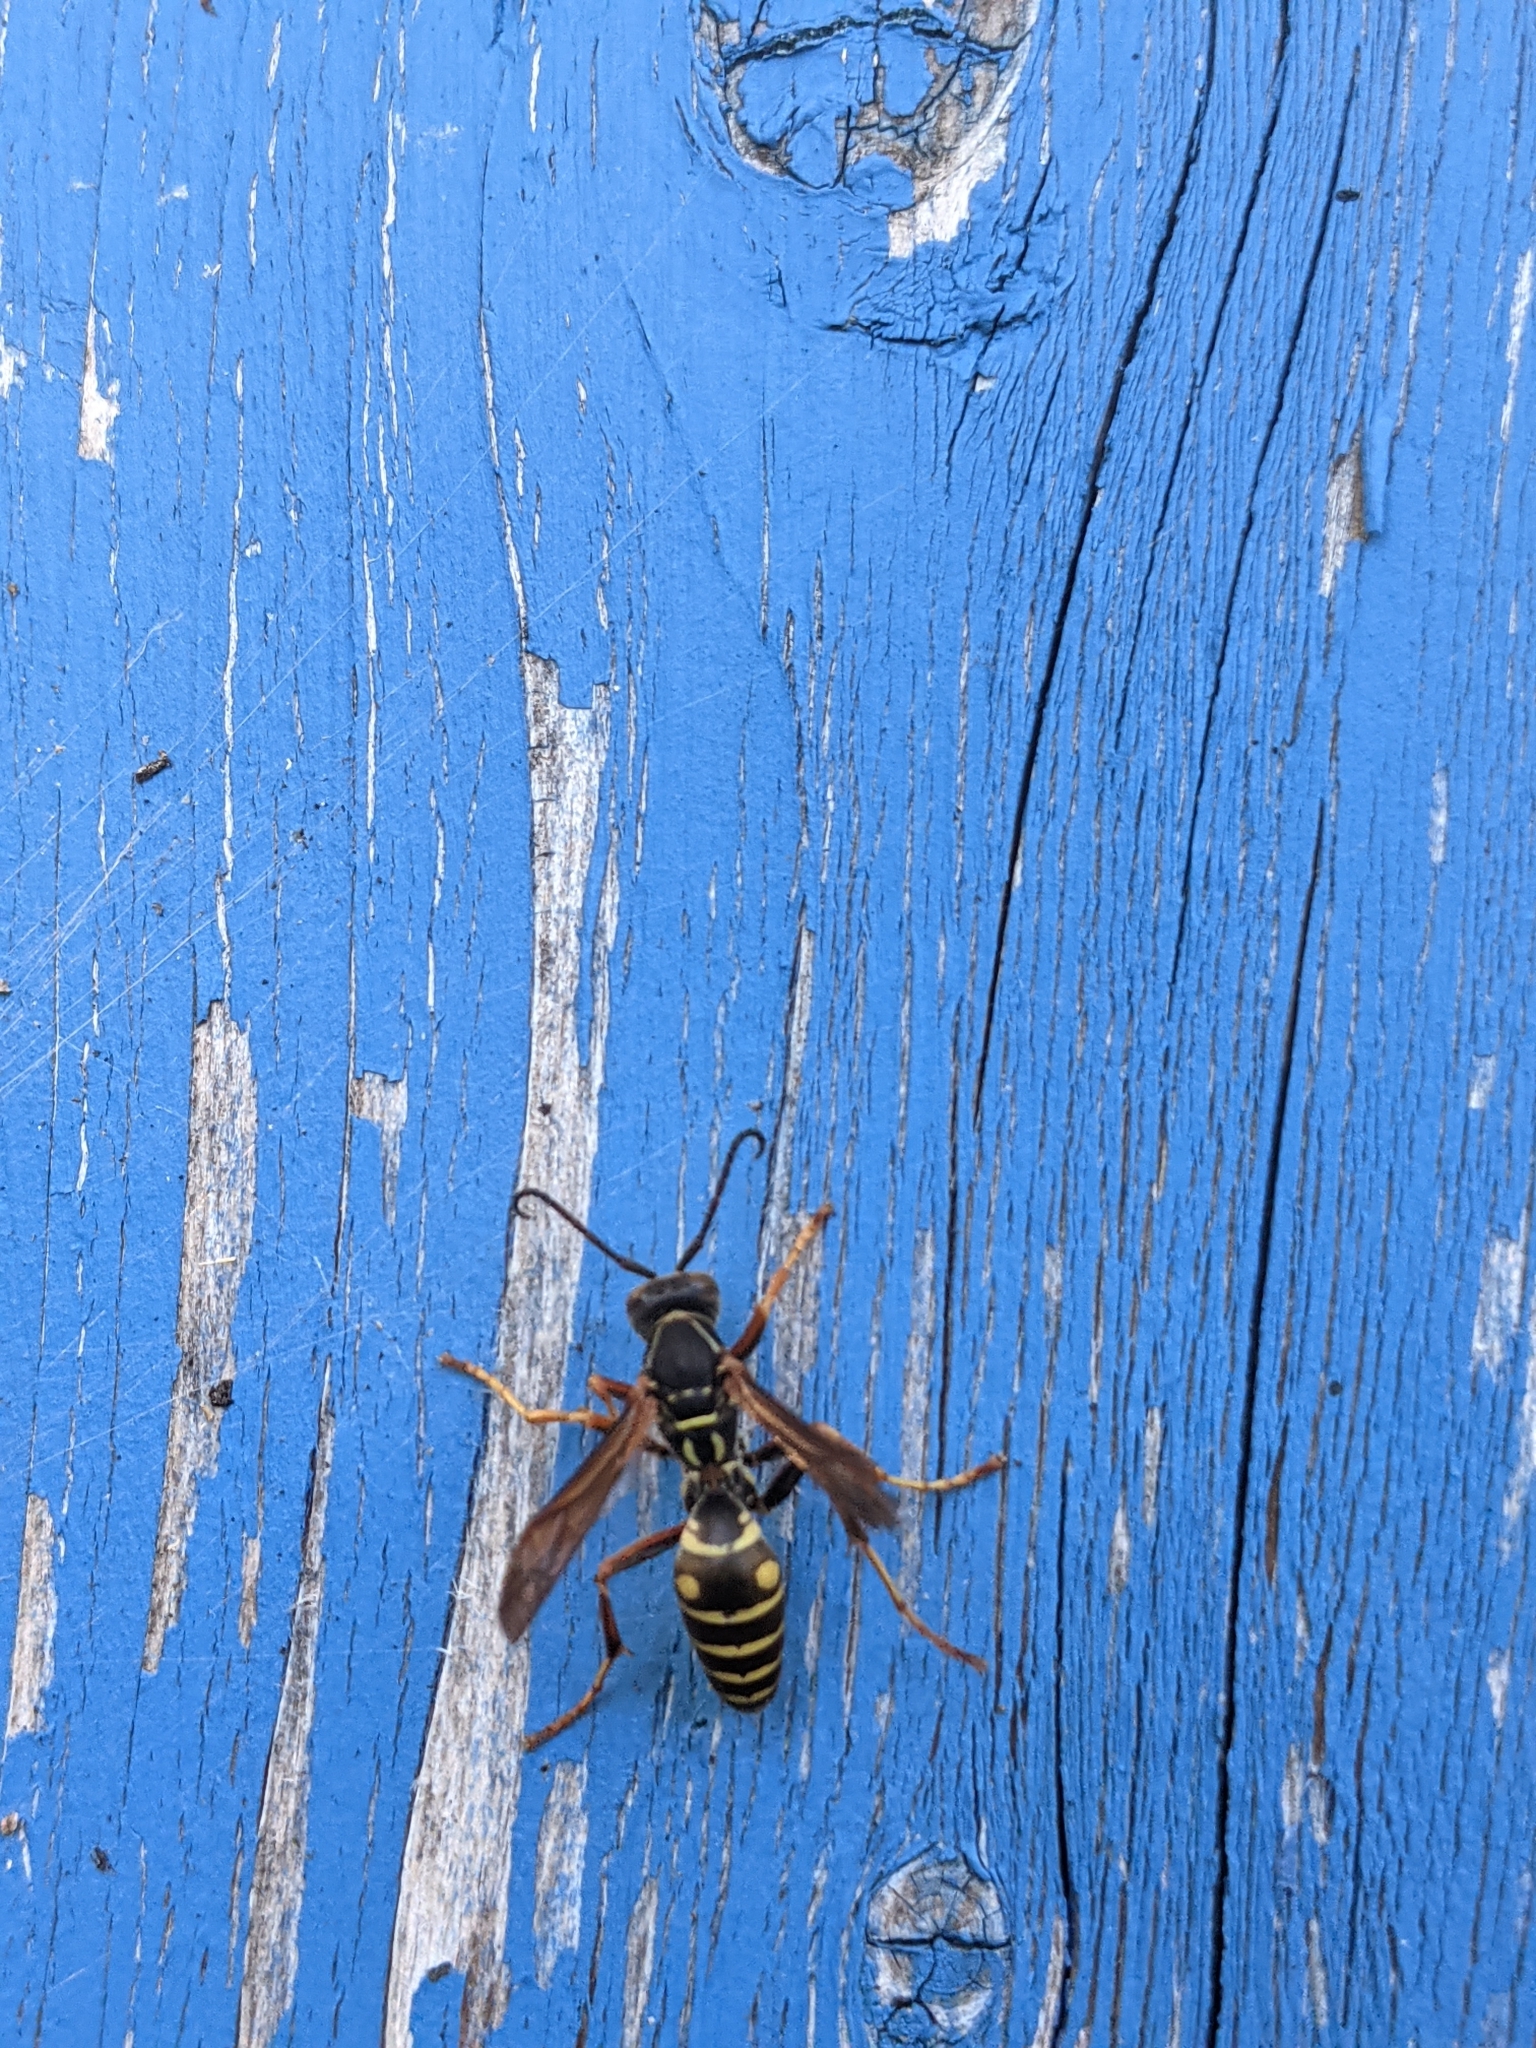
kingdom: Animalia
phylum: Arthropoda
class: Insecta
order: Hymenoptera
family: Eumenidae
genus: Polistes
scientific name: Polistes fuscatus
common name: Dark paper wasp
